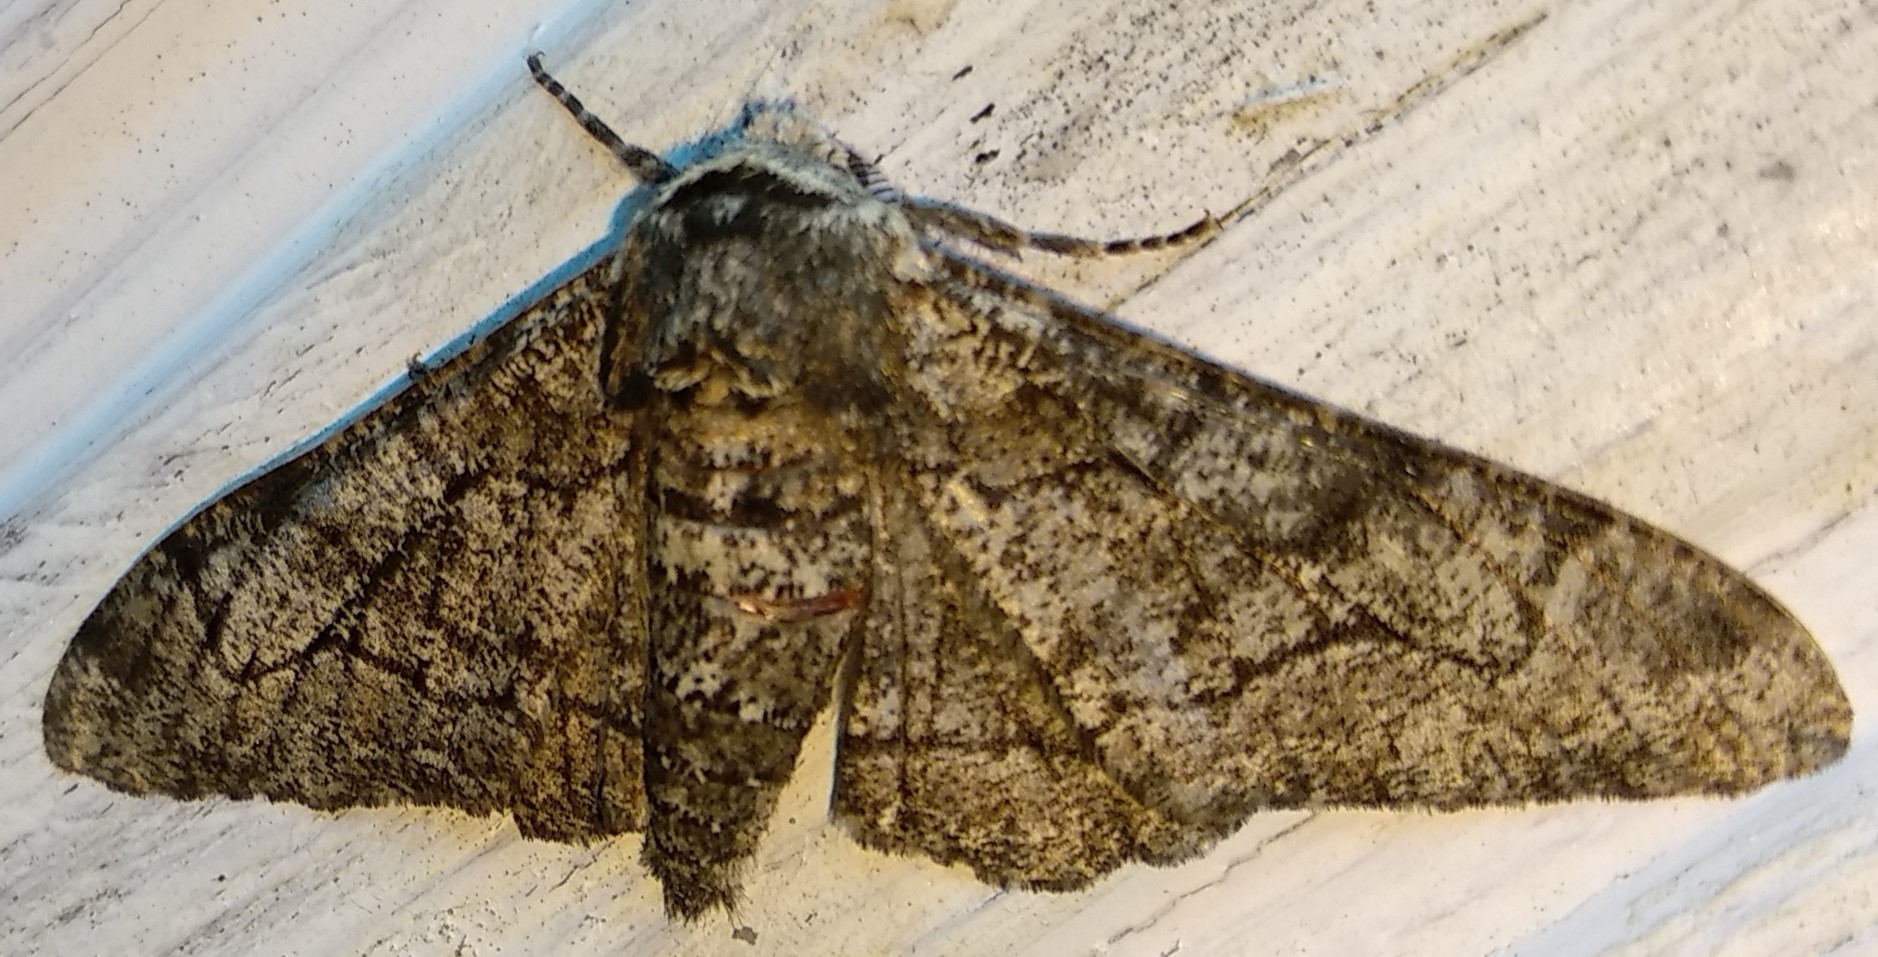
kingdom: Animalia
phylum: Arthropoda
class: Insecta
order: Lepidoptera
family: Geometridae
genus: Biston
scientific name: Biston betularia
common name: Peppered moth
